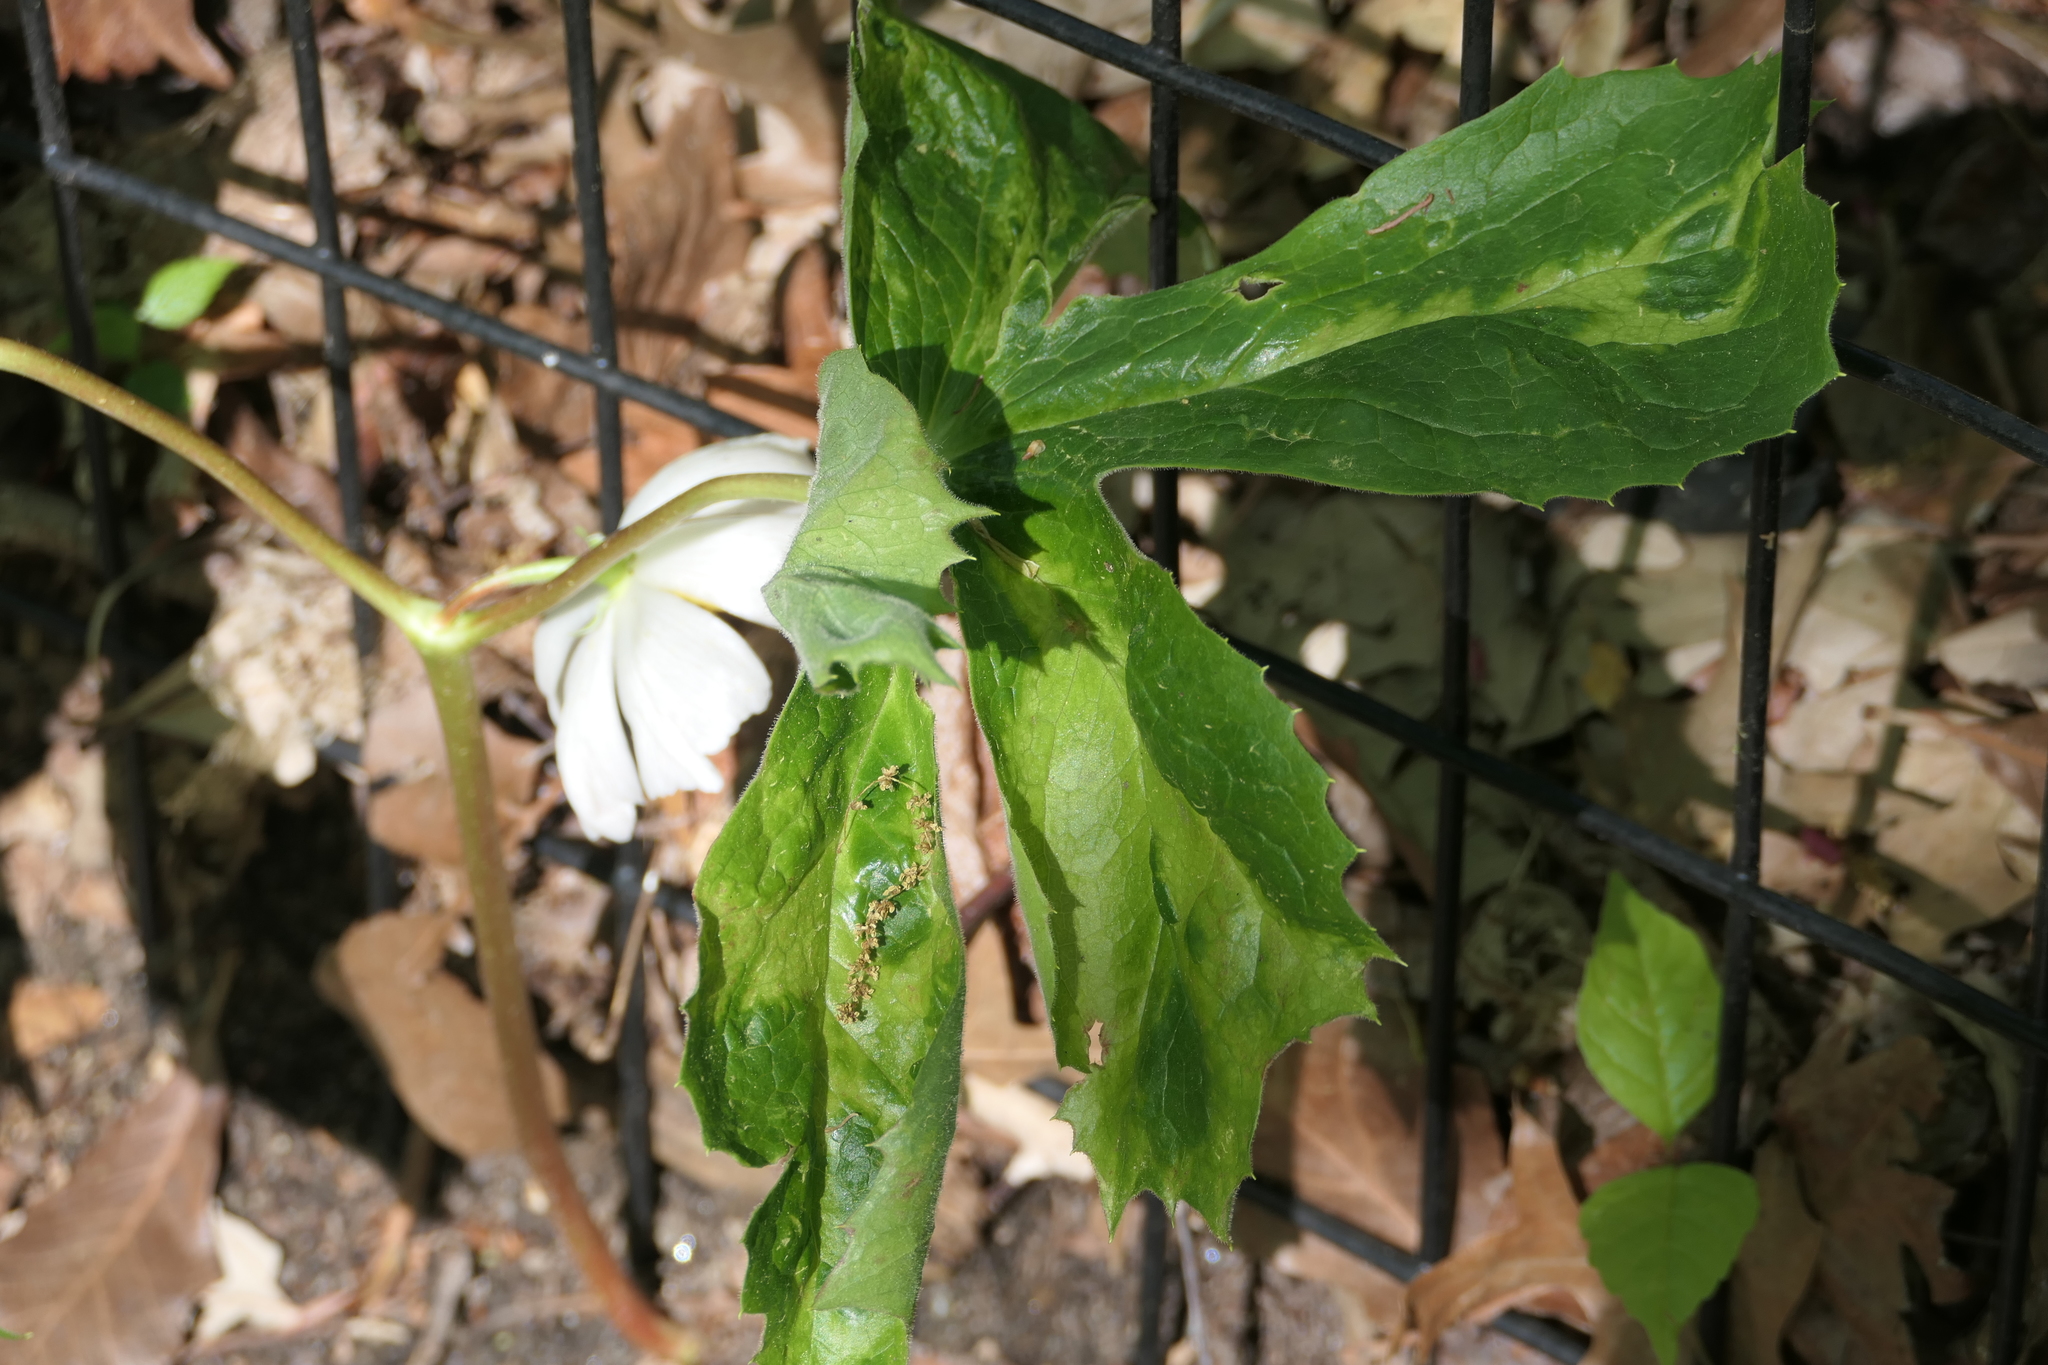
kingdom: Plantae
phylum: Tracheophyta
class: Magnoliopsida
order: Ranunculales
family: Berberidaceae
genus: Podophyllum
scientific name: Podophyllum peltatum
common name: Wild mandrake
